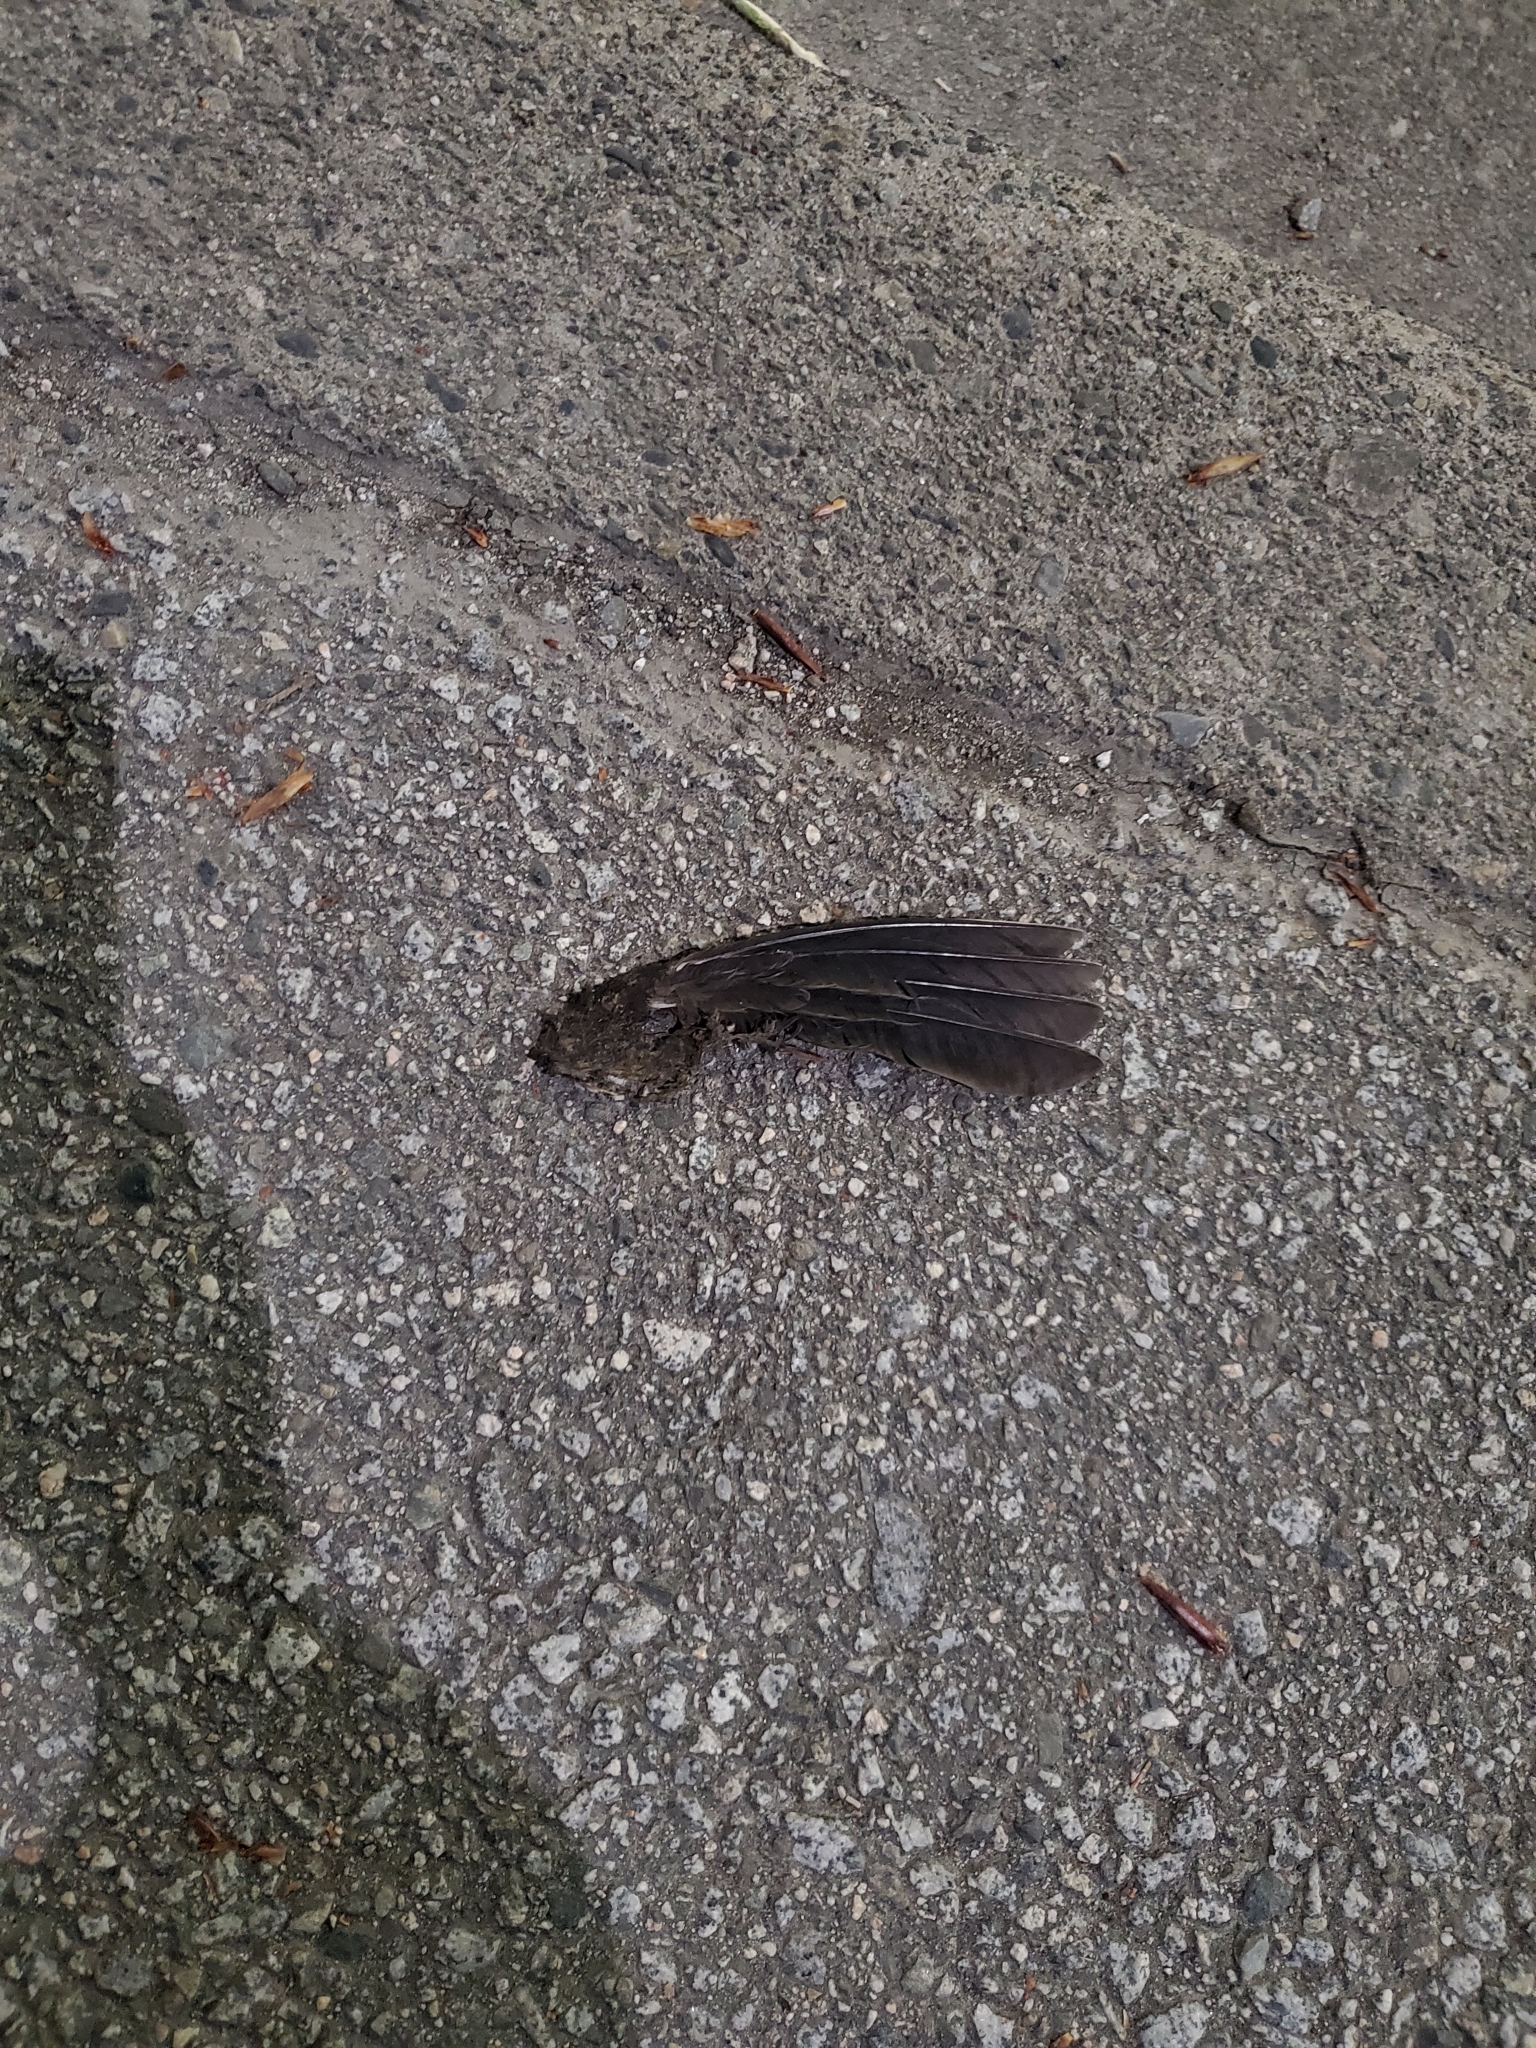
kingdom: Animalia
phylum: Chordata
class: Aves
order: Passeriformes
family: Icteridae
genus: Agelaius
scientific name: Agelaius phoeniceus
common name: Red-winged blackbird
